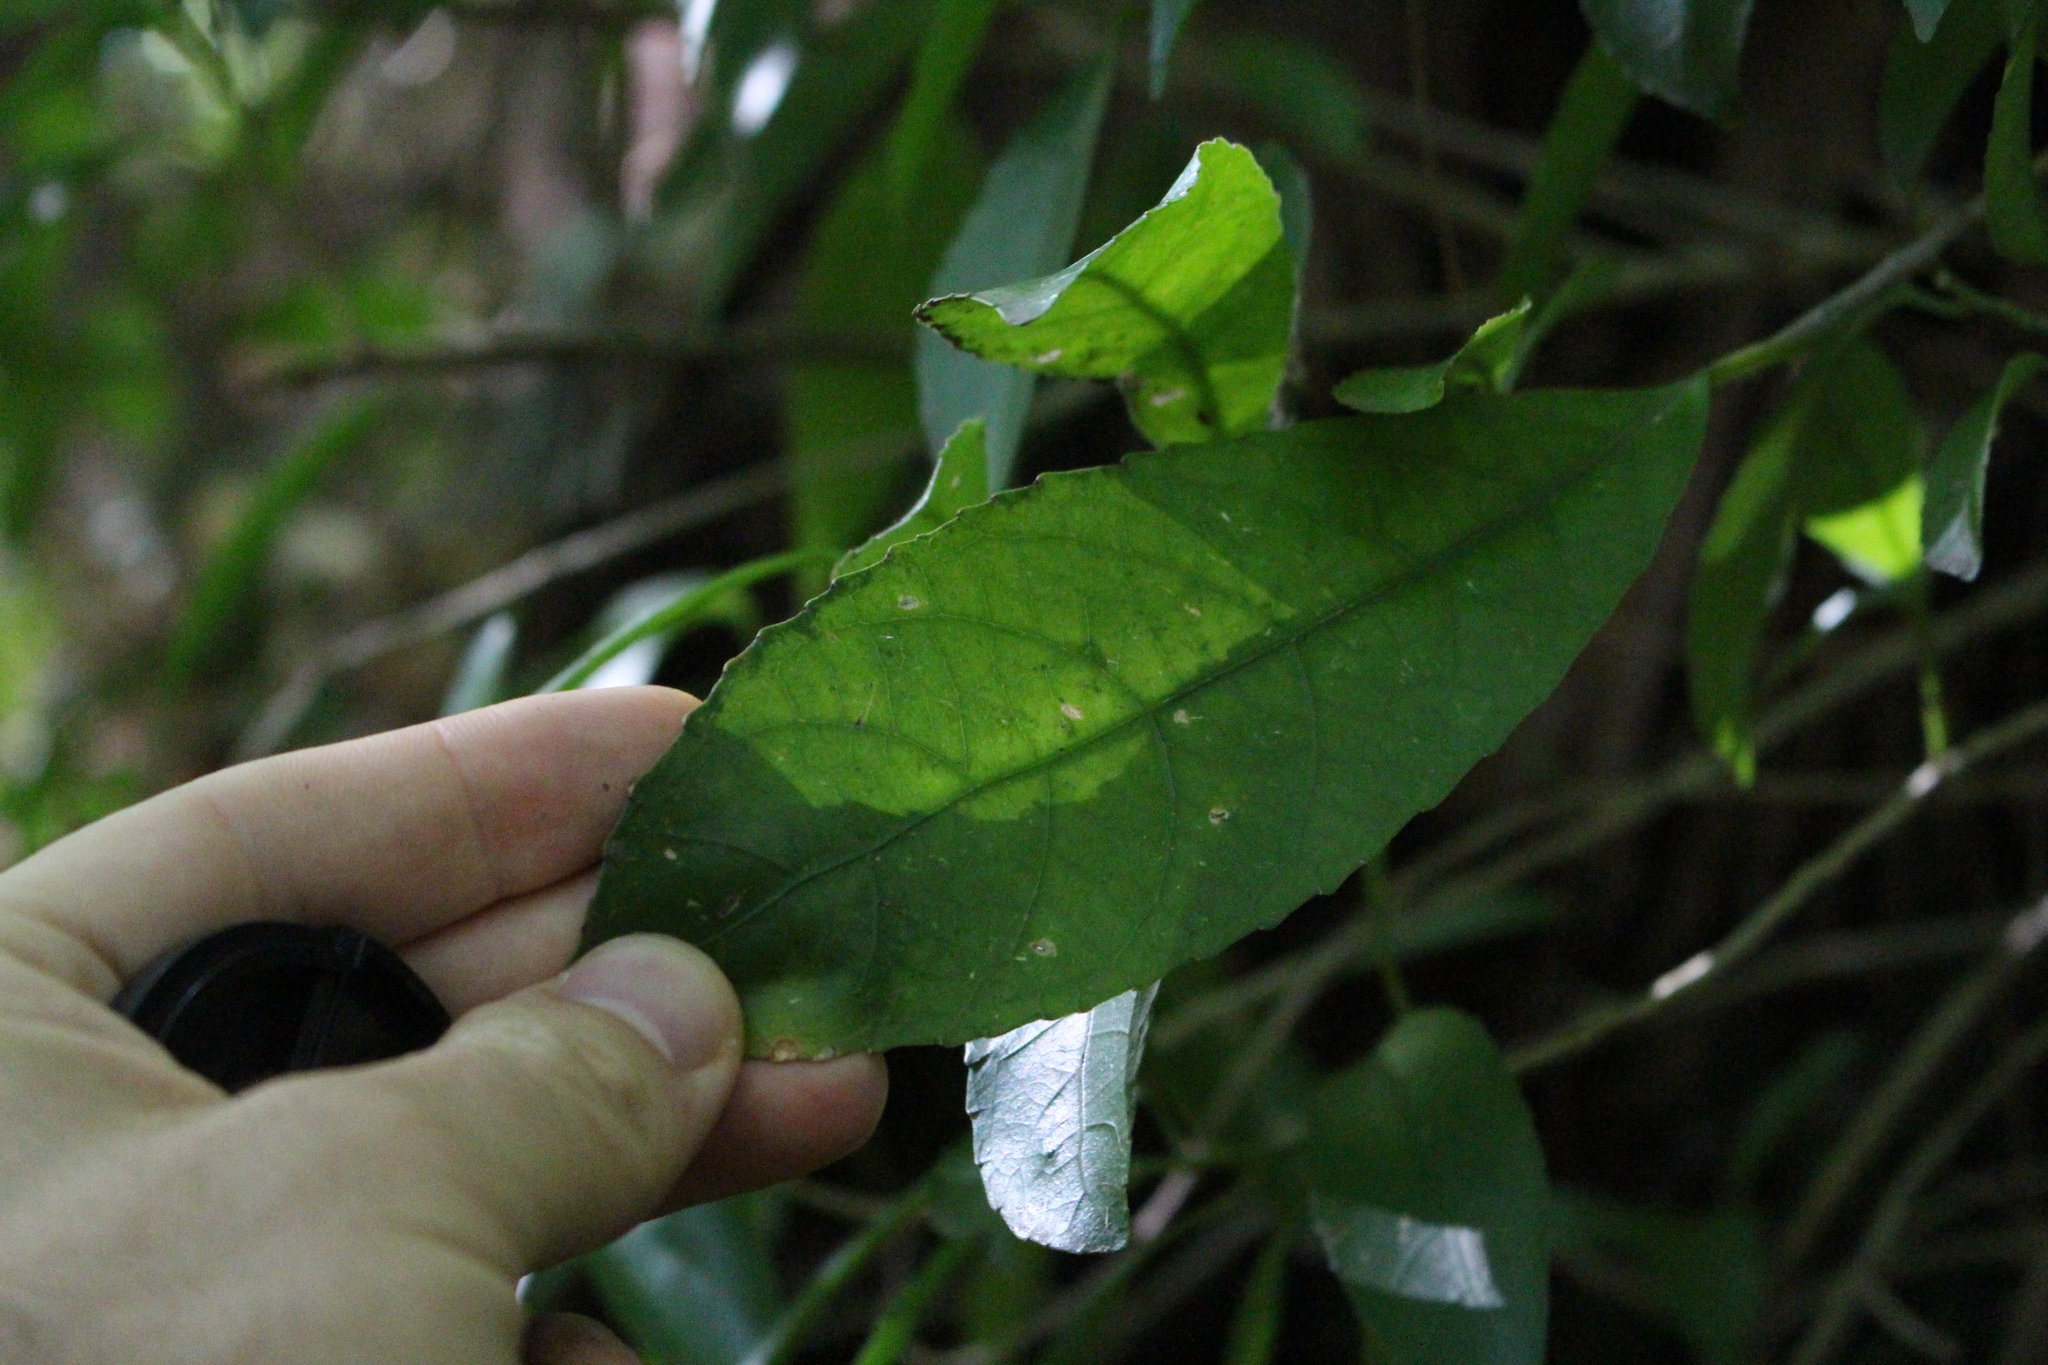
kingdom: Plantae
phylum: Tracheophyta
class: Magnoliopsida
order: Malpighiales
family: Violaceae
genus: Melicytus
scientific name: Melicytus ramiflorus
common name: Mahoe
